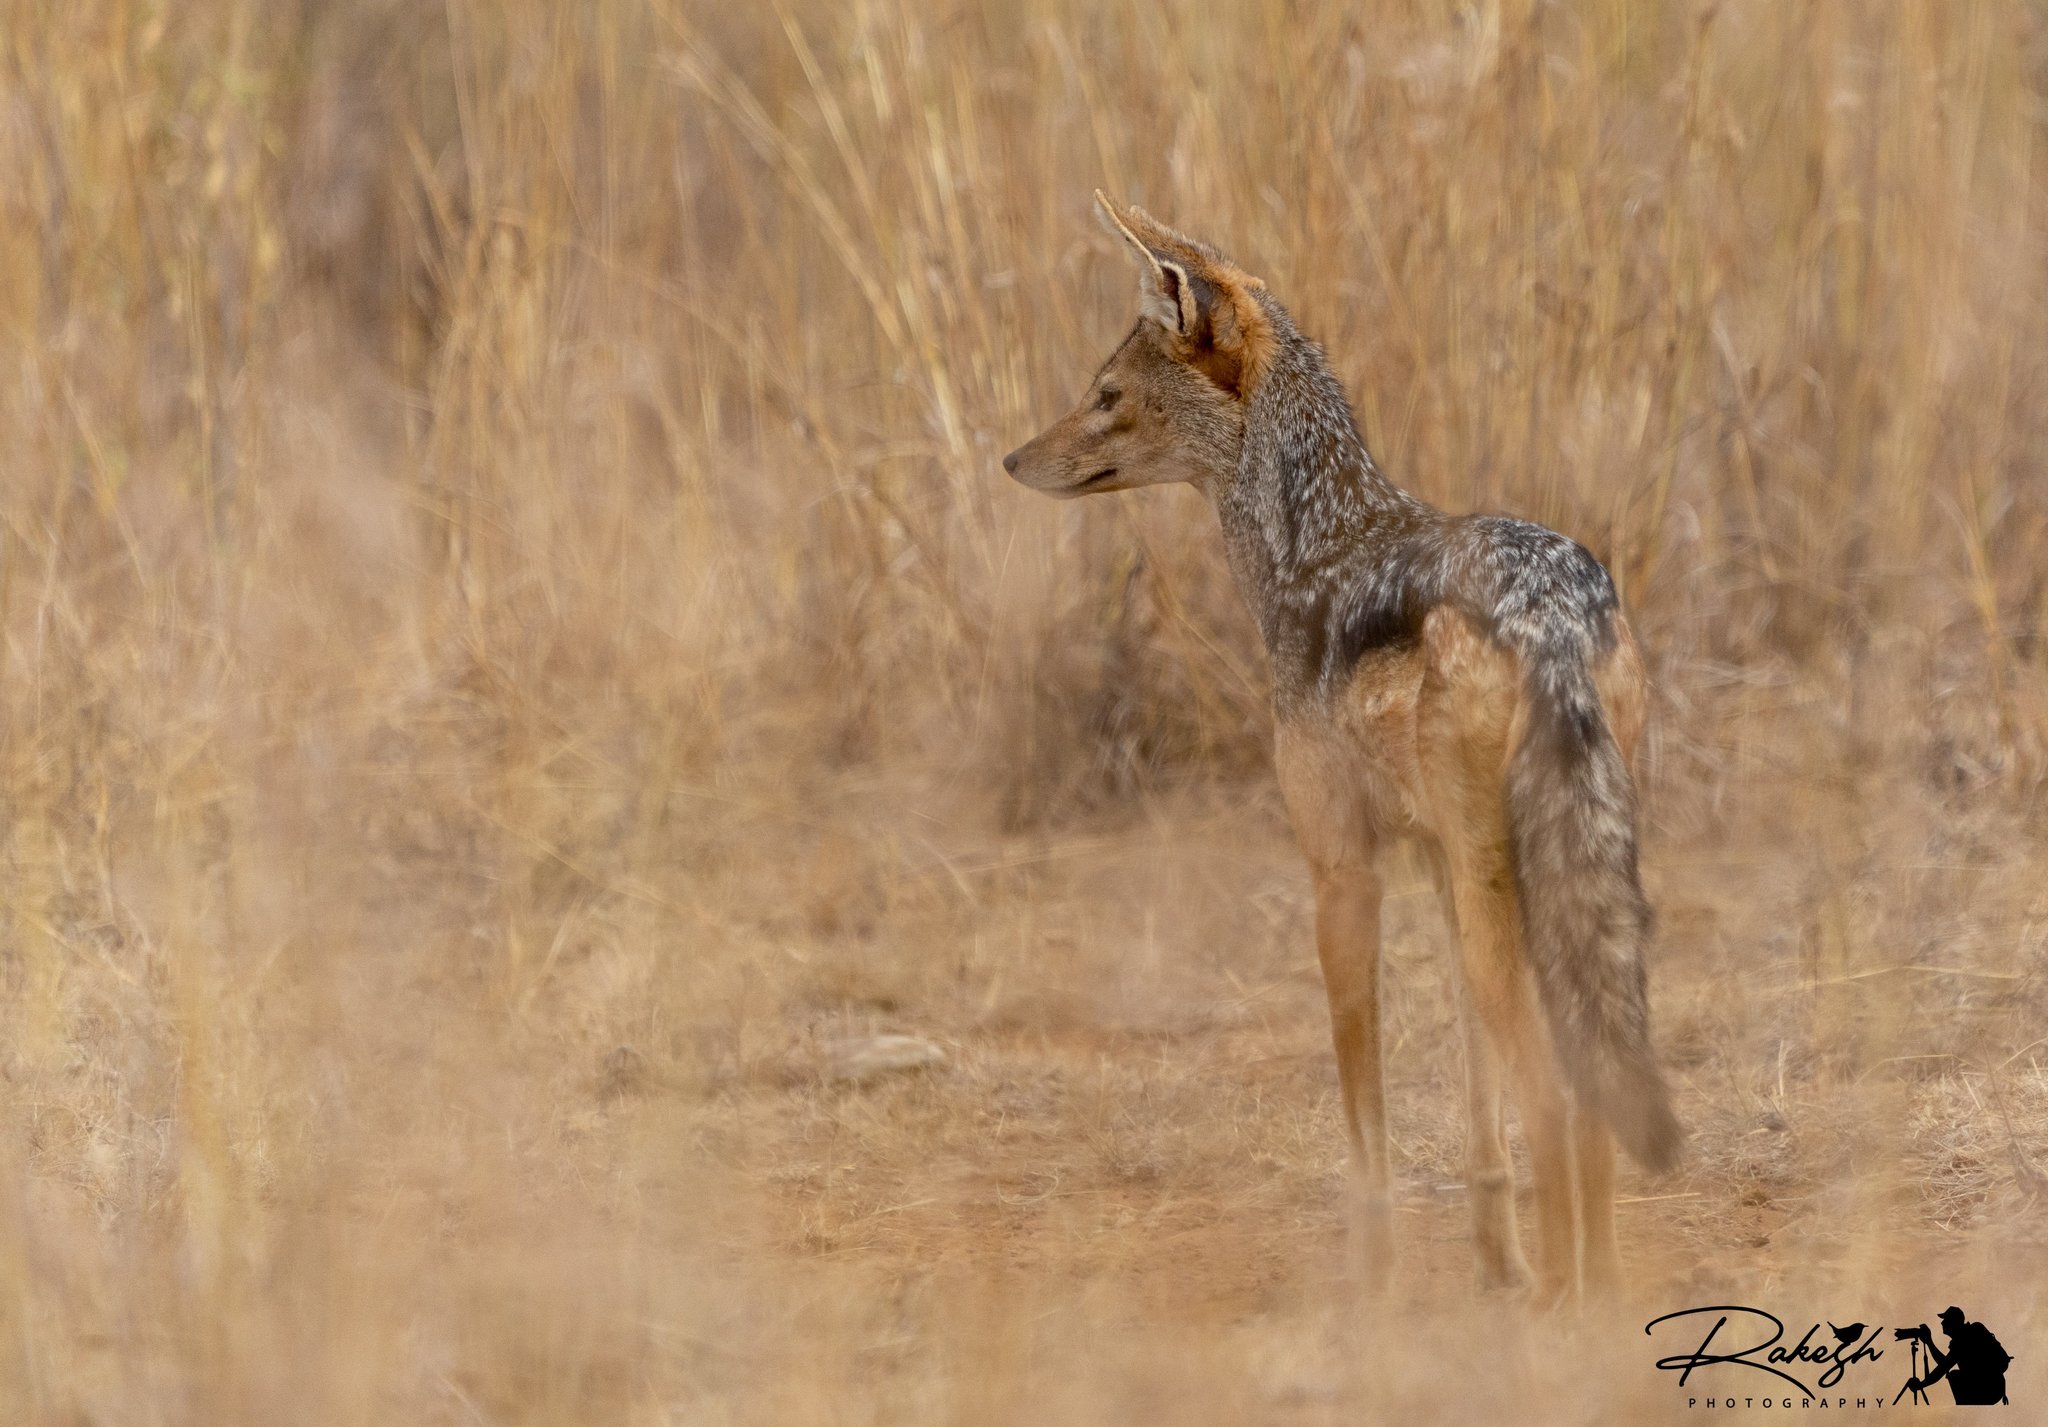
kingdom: Animalia
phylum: Chordata
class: Mammalia
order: Carnivora
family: Canidae
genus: Lupulella
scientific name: Lupulella
